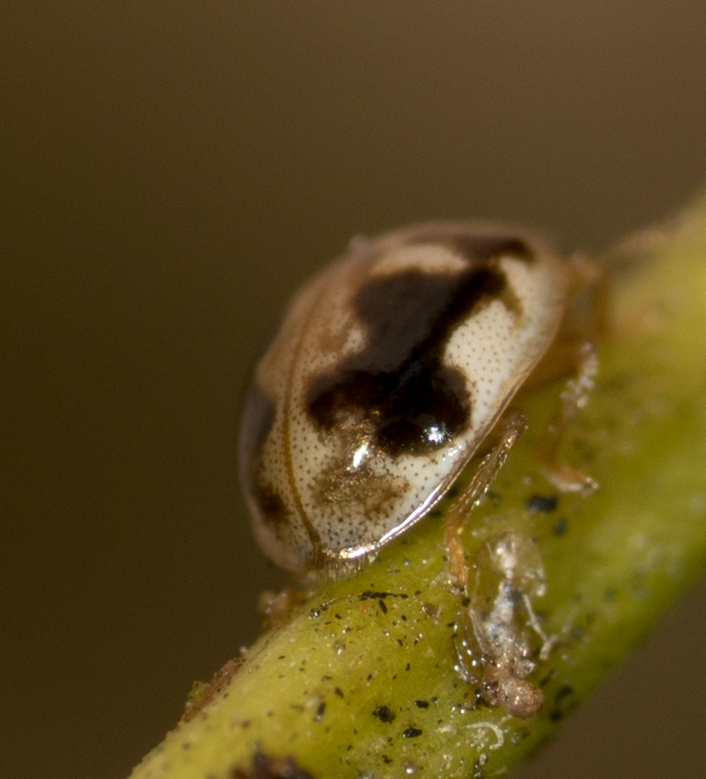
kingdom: Animalia
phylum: Arthropoda
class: Insecta
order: Coleoptera
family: Coccinellidae
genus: Psyllobora
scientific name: Psyllobora renifer
